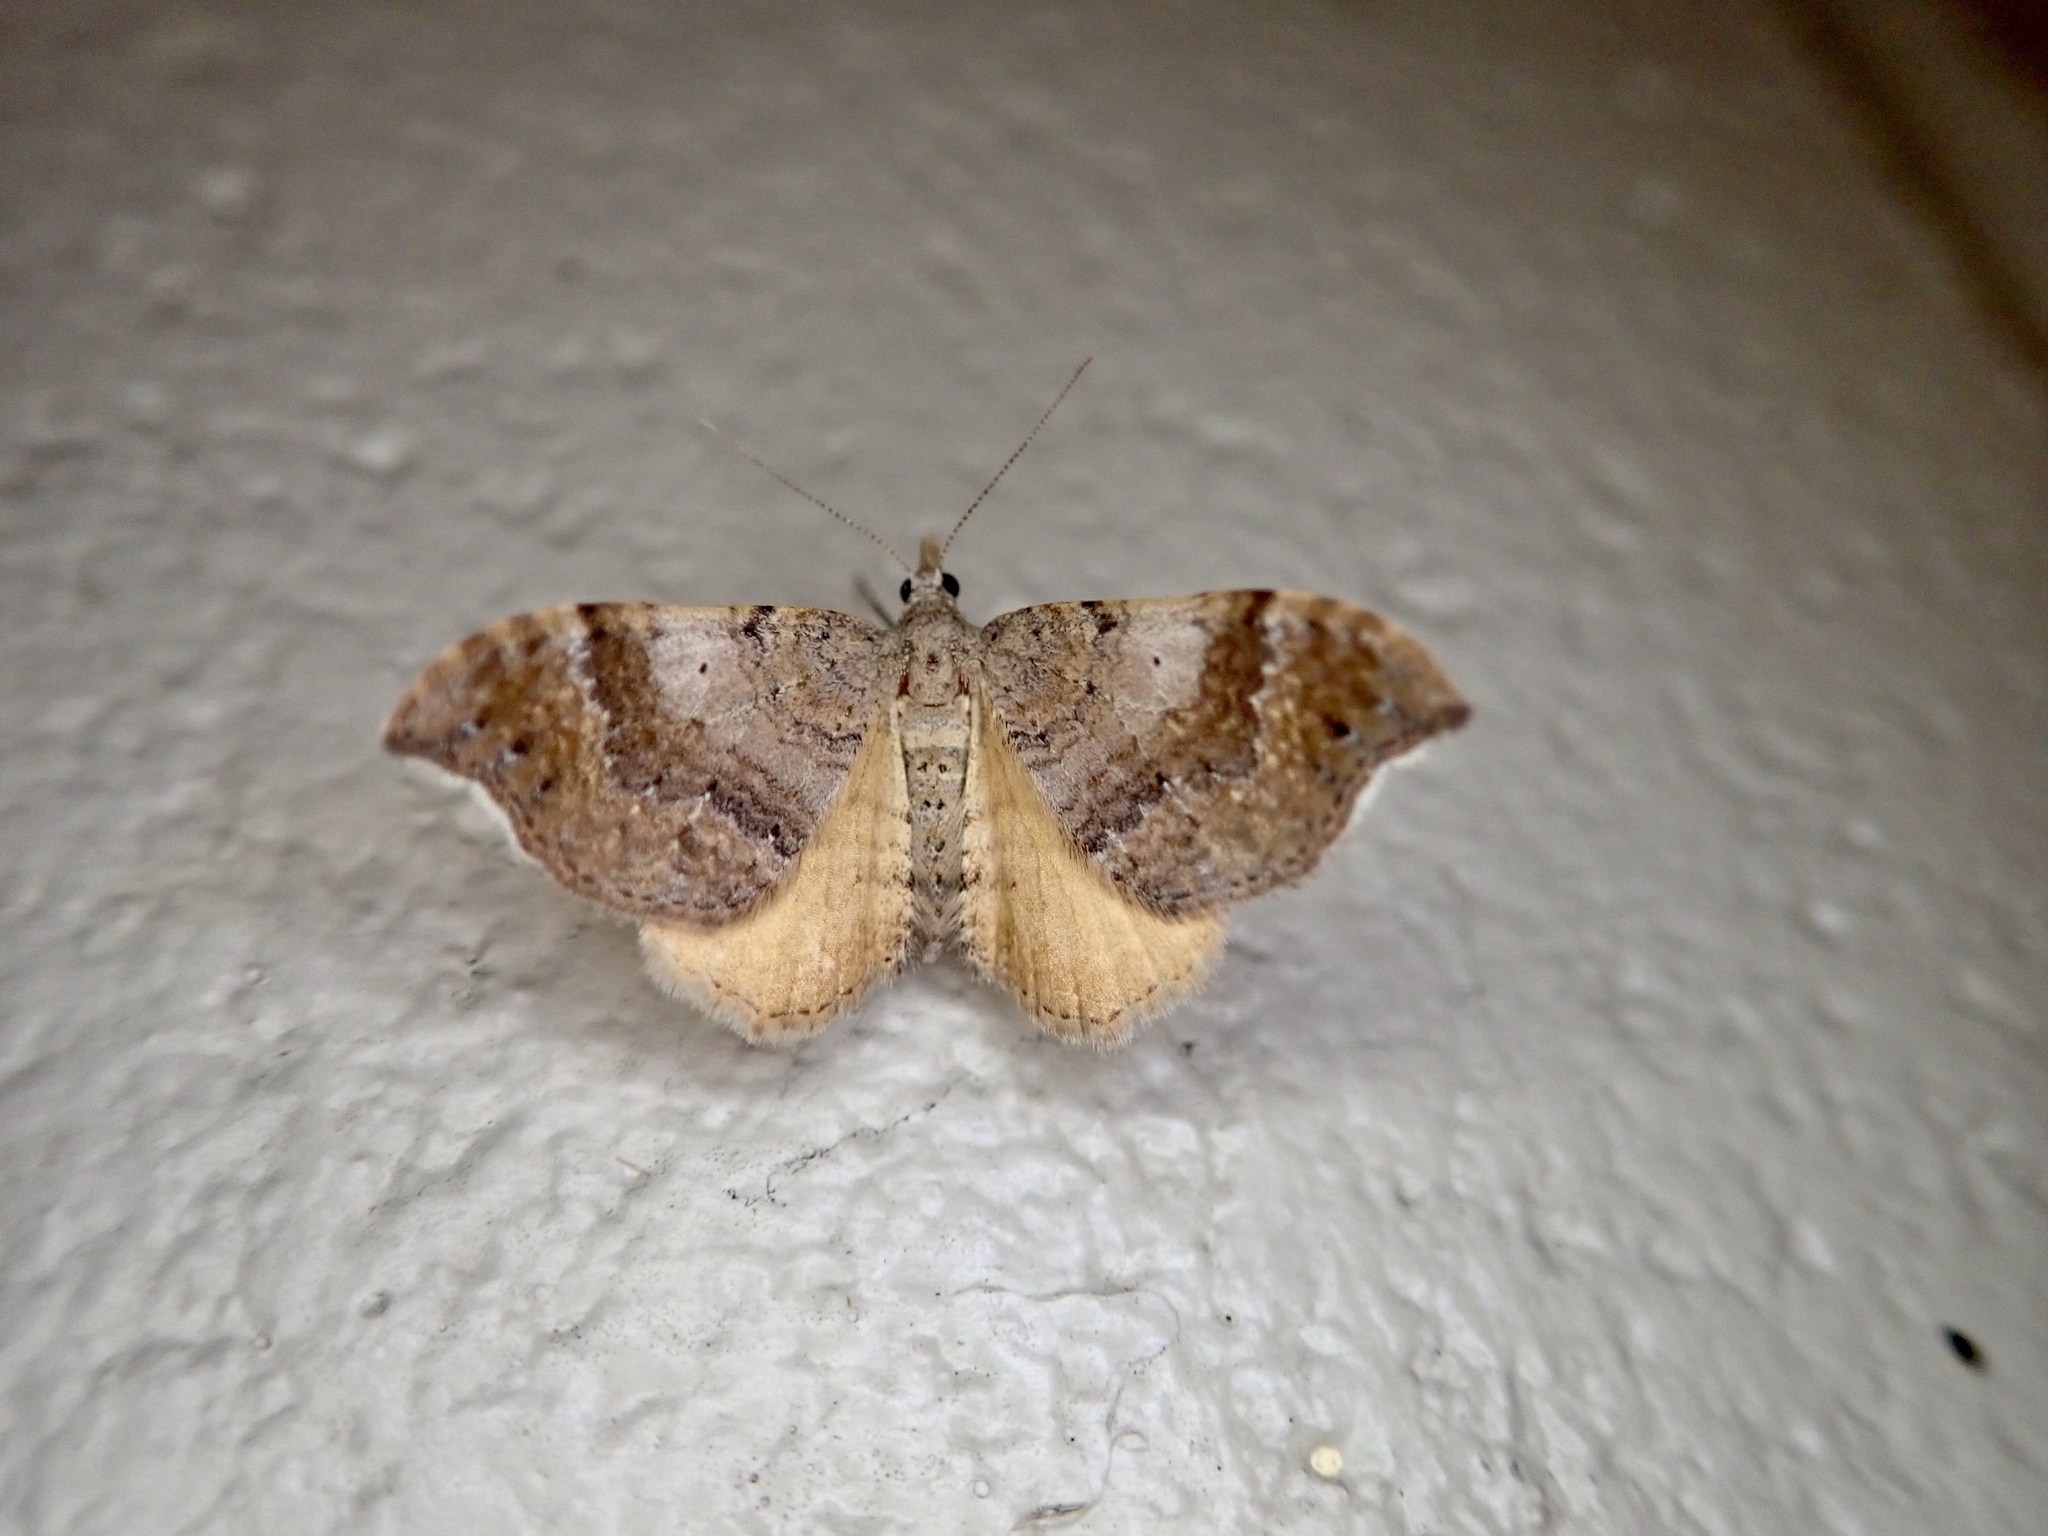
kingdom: Animalia
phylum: Arthropoda
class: Insecta
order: Lepidoptera
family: Geometridae
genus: Homodotis
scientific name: Homodotis megaspilata
